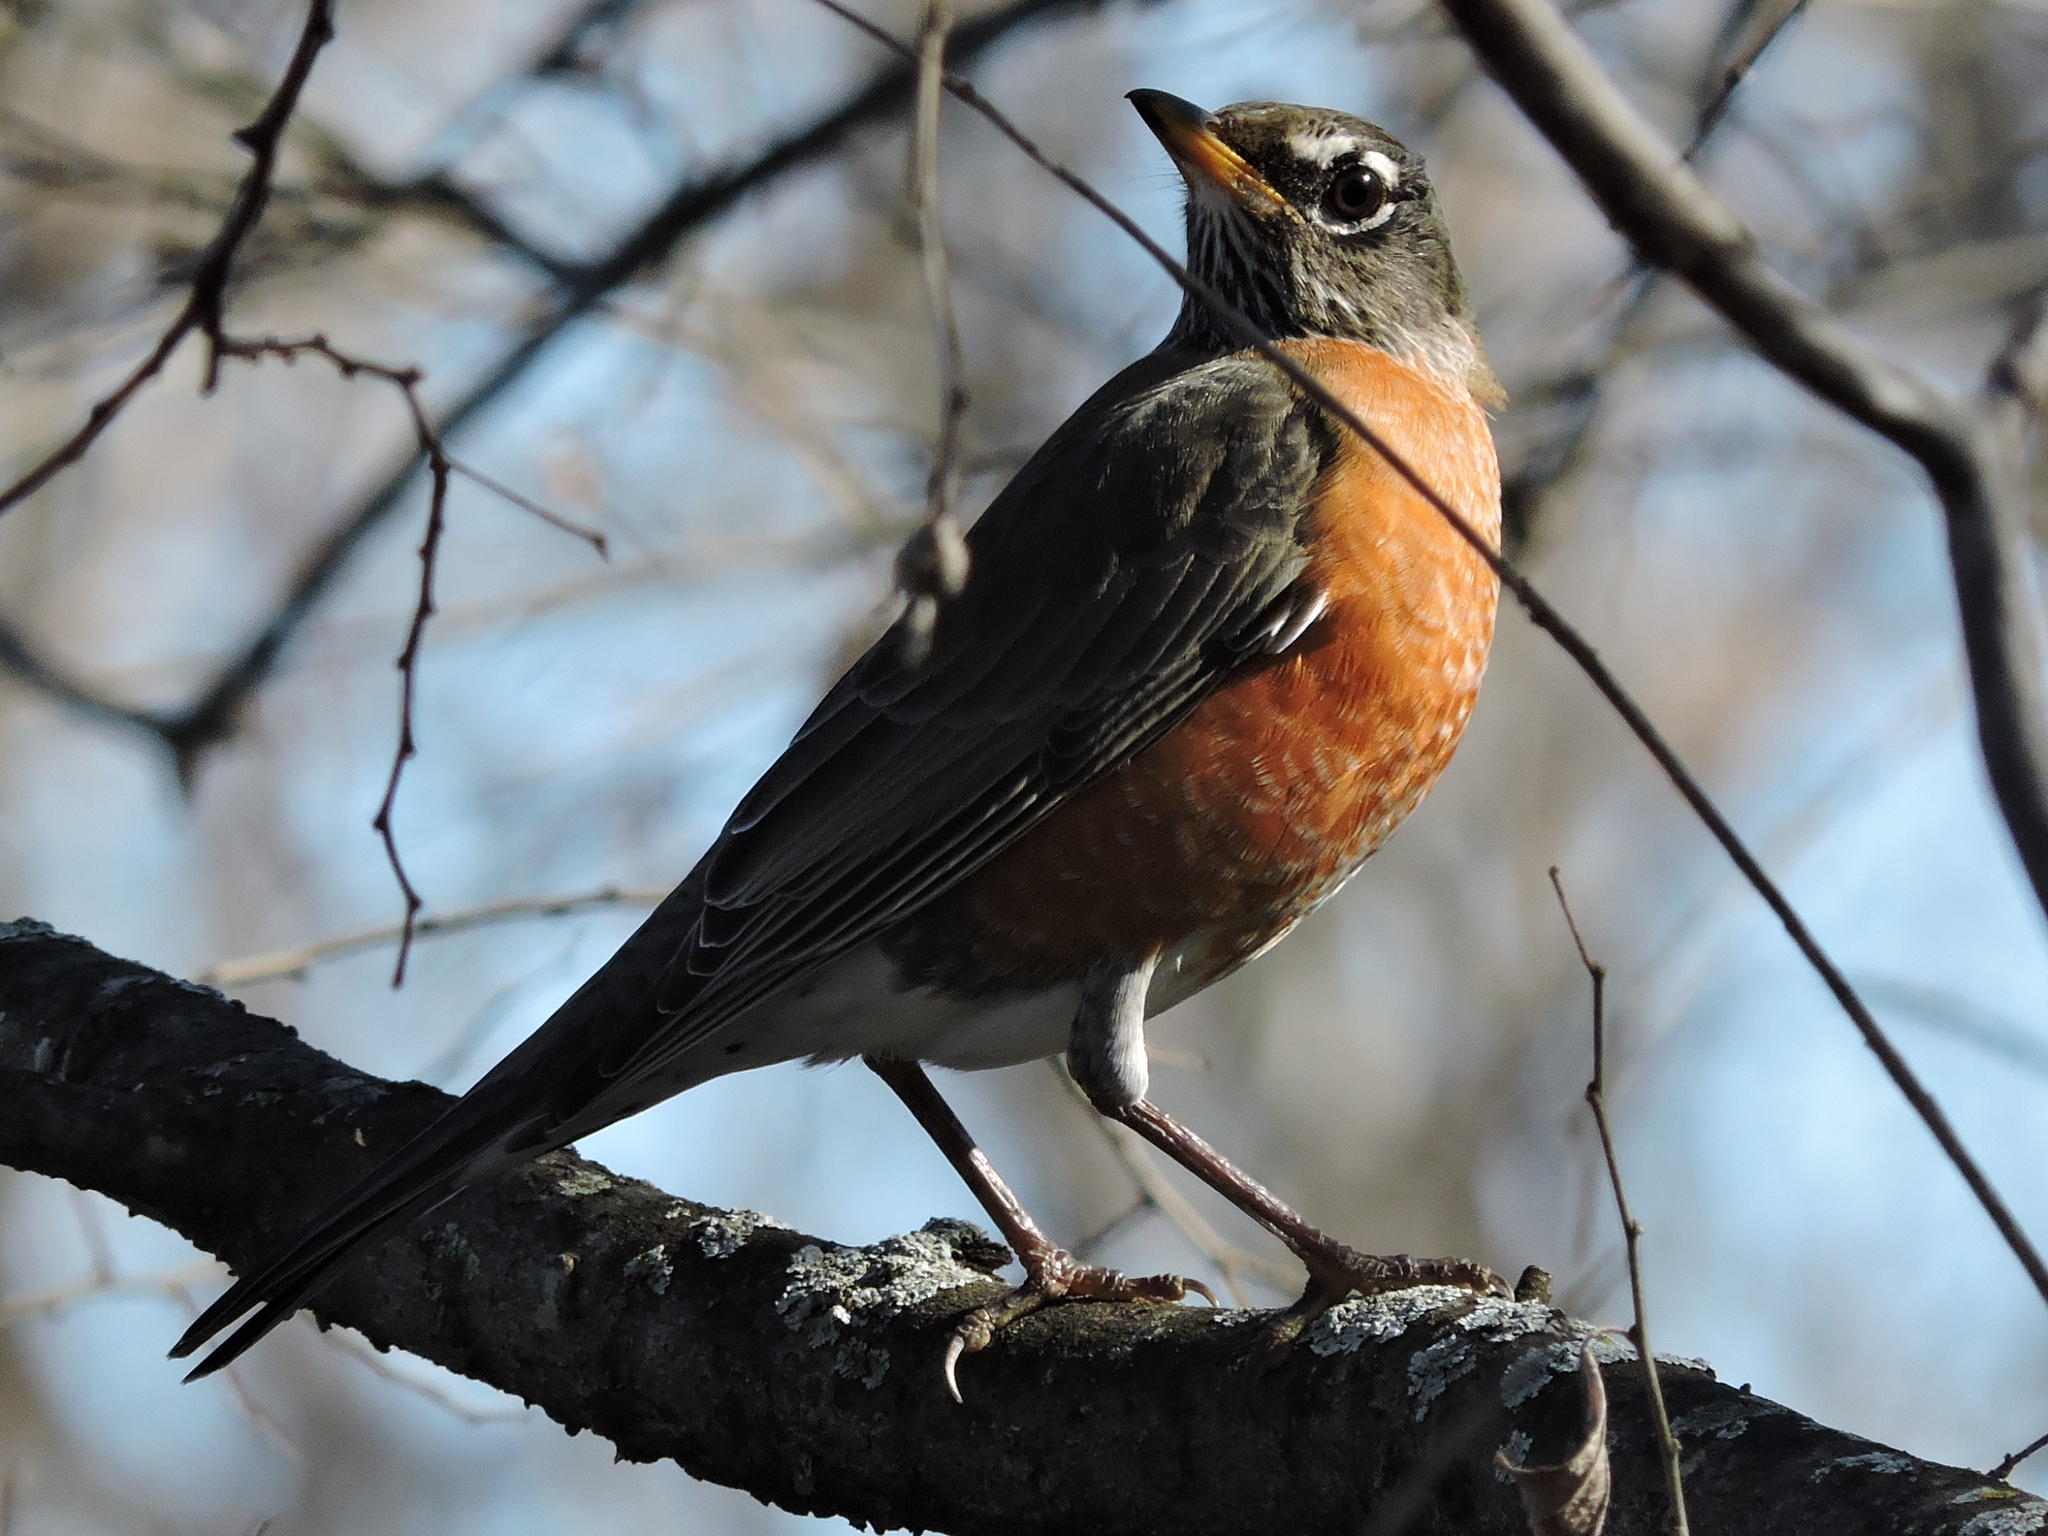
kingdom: Animalia
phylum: Chordata
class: Aves
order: Passeriformes
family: Turdidae
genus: Turdus
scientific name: Turdus migratorius
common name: American robin
